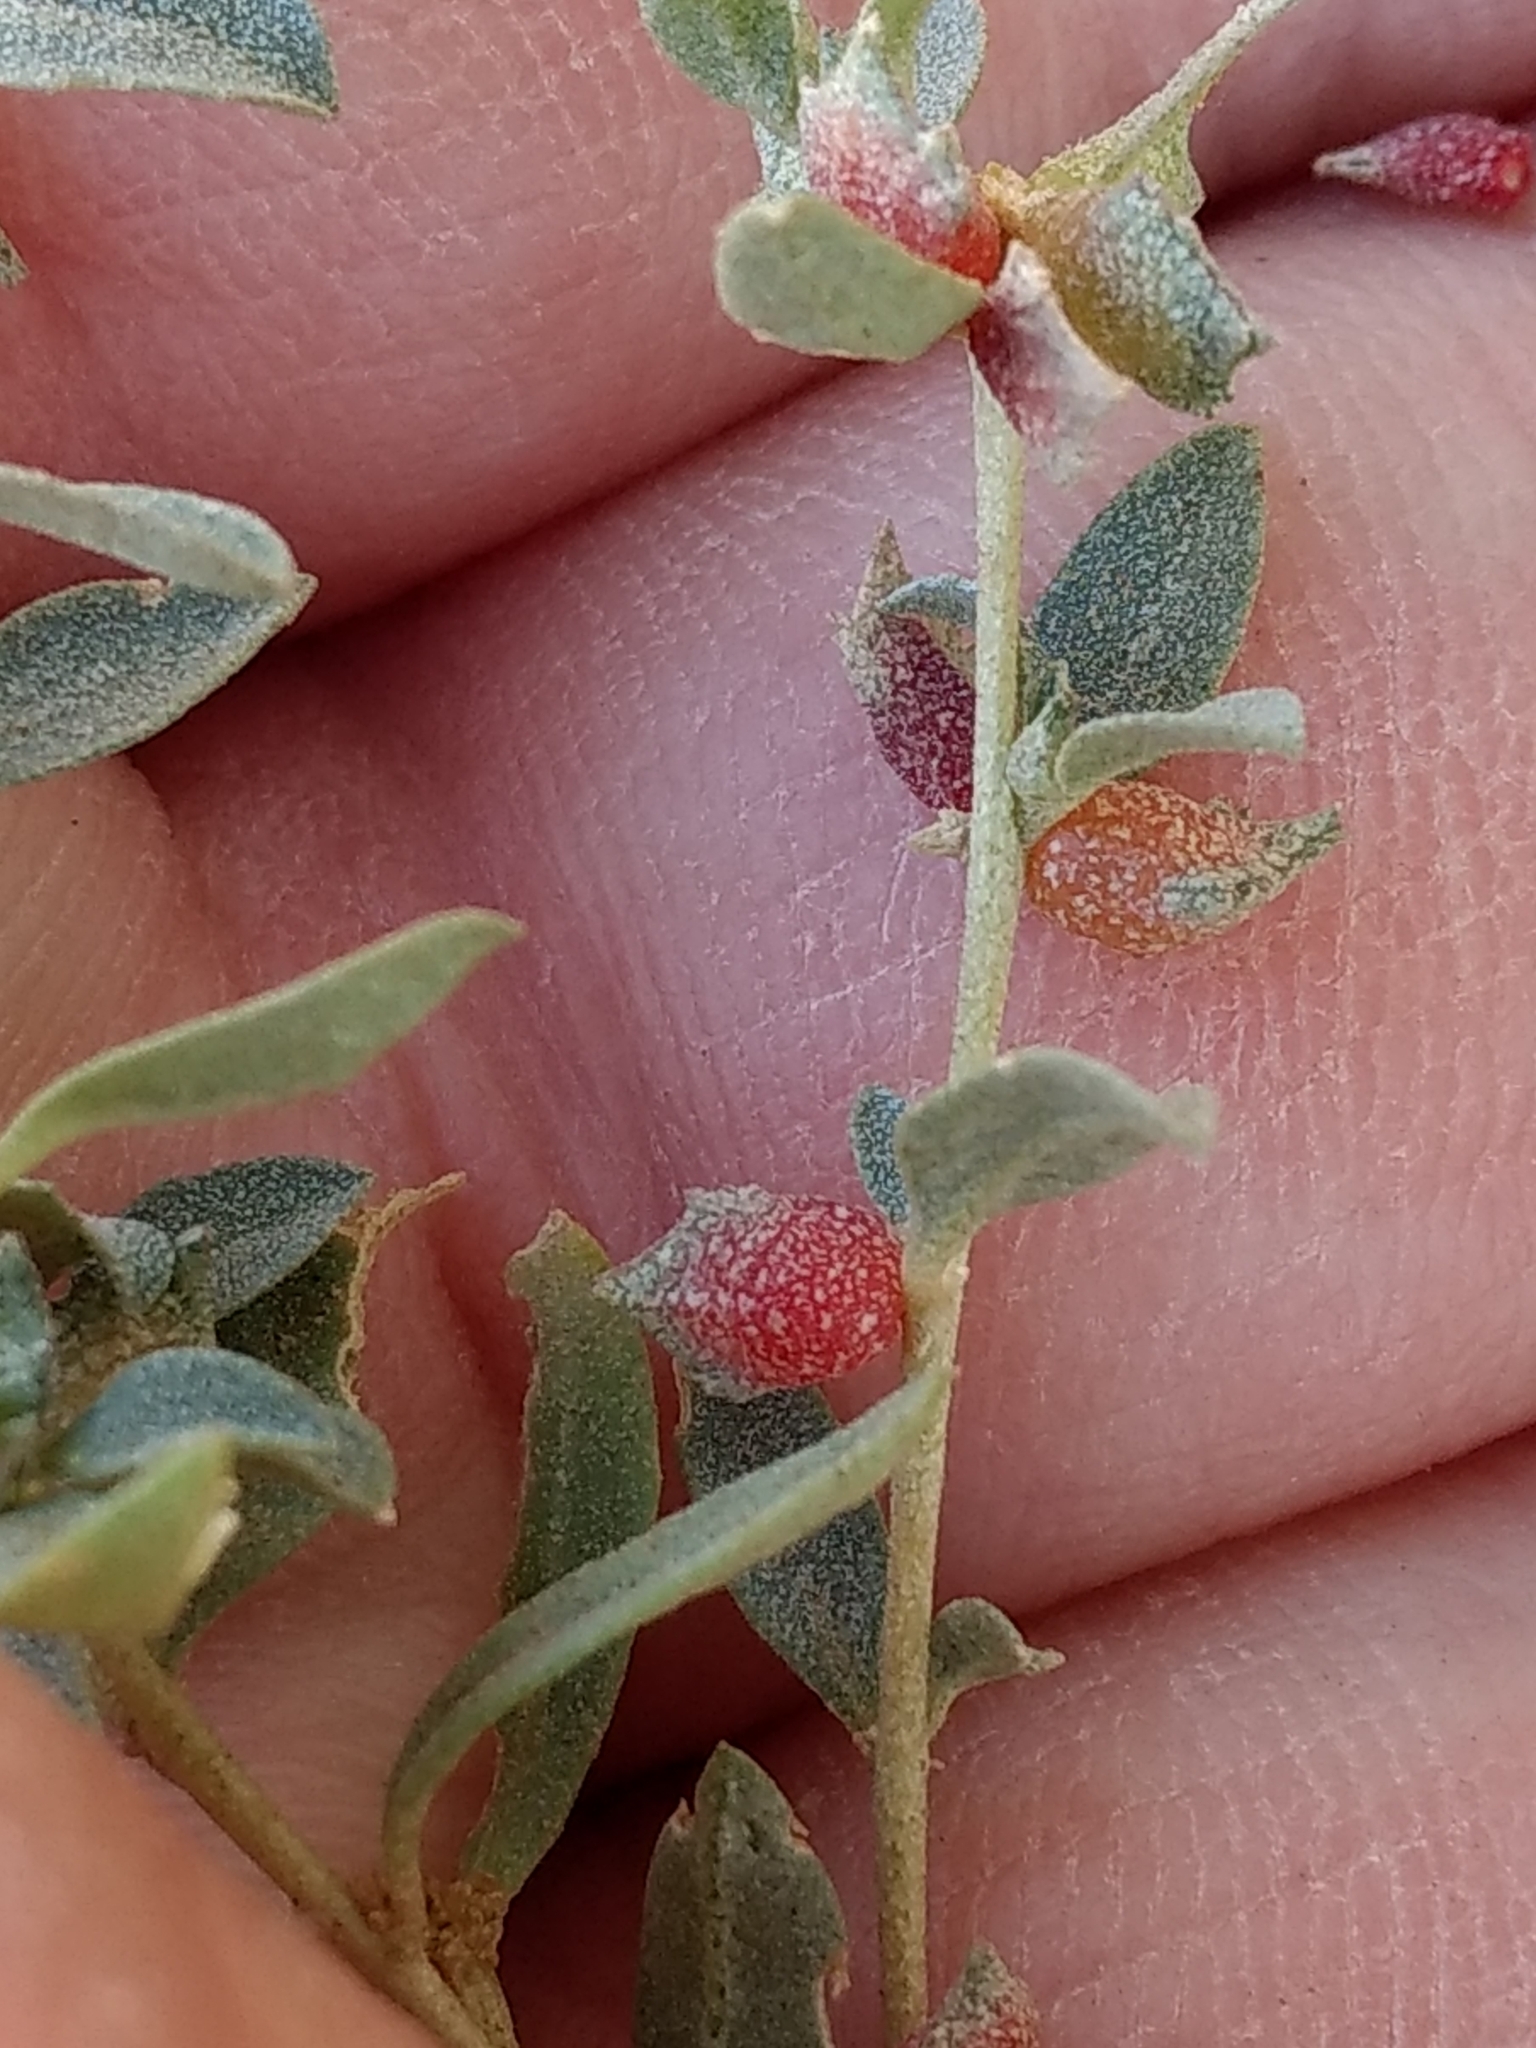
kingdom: Plantae
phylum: Tracheophyta
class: Magnoliopsida
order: Caryophyllales
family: Amaranthaceae
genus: Atriplex
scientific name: Atriplex semibaccata
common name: Australian saltbush
